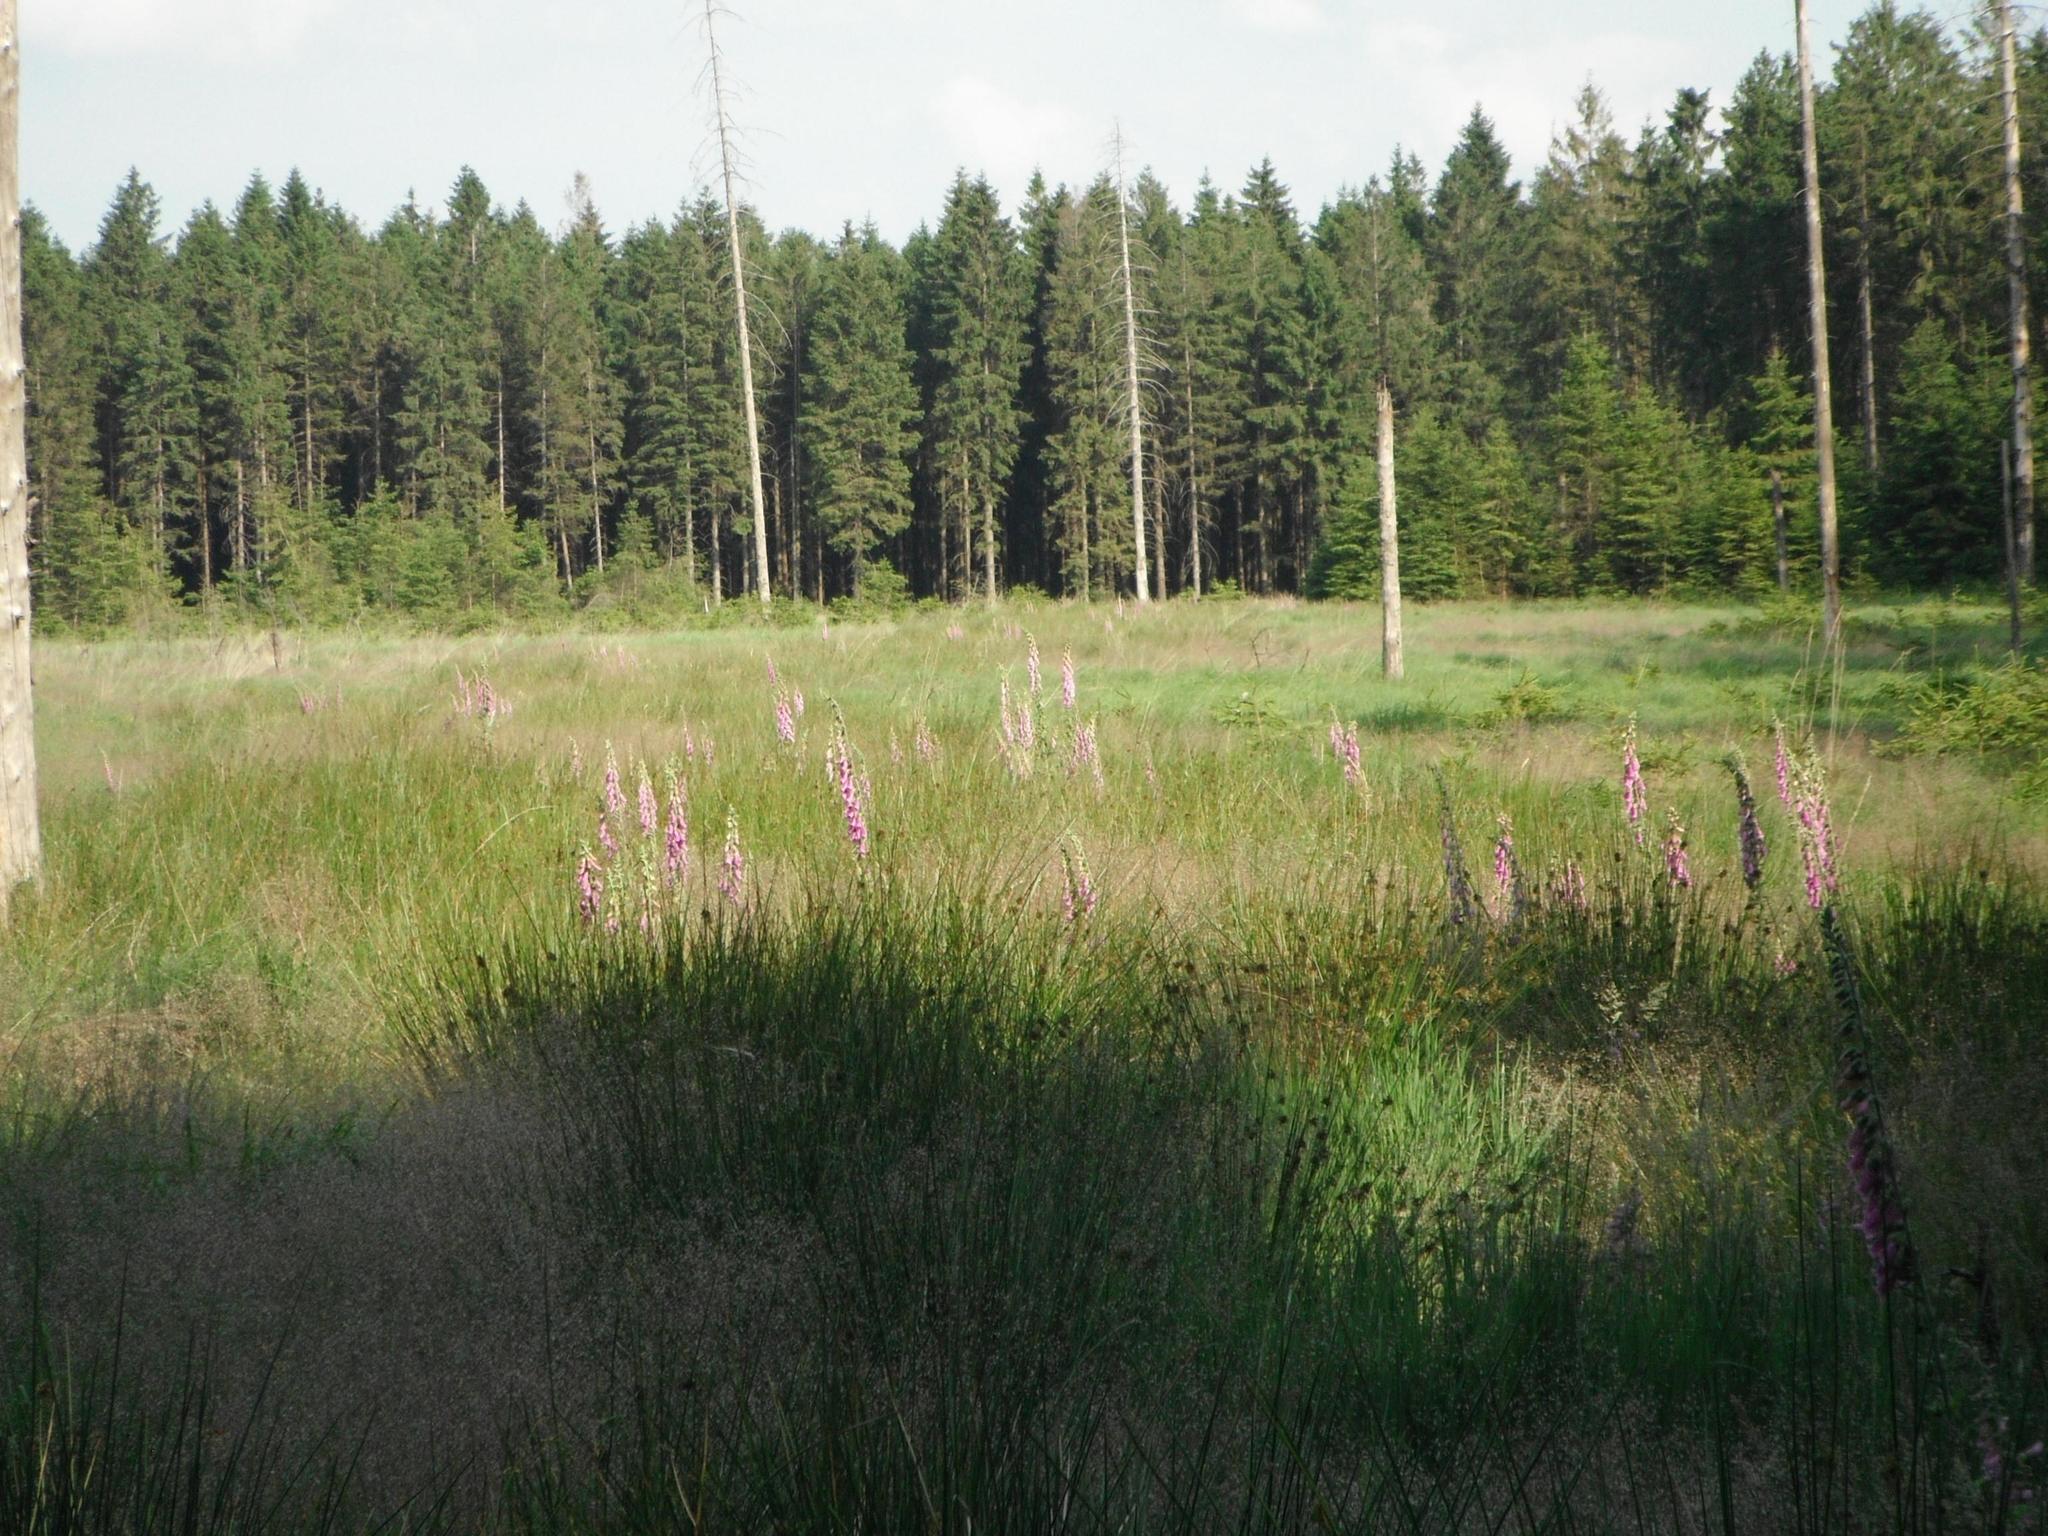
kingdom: Plantae
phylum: Tracheophyta
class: Magnoliopsida
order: Lamiales
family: Plantaginaceae
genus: Digitalis
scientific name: Digitalis purpurea
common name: Foxglove
